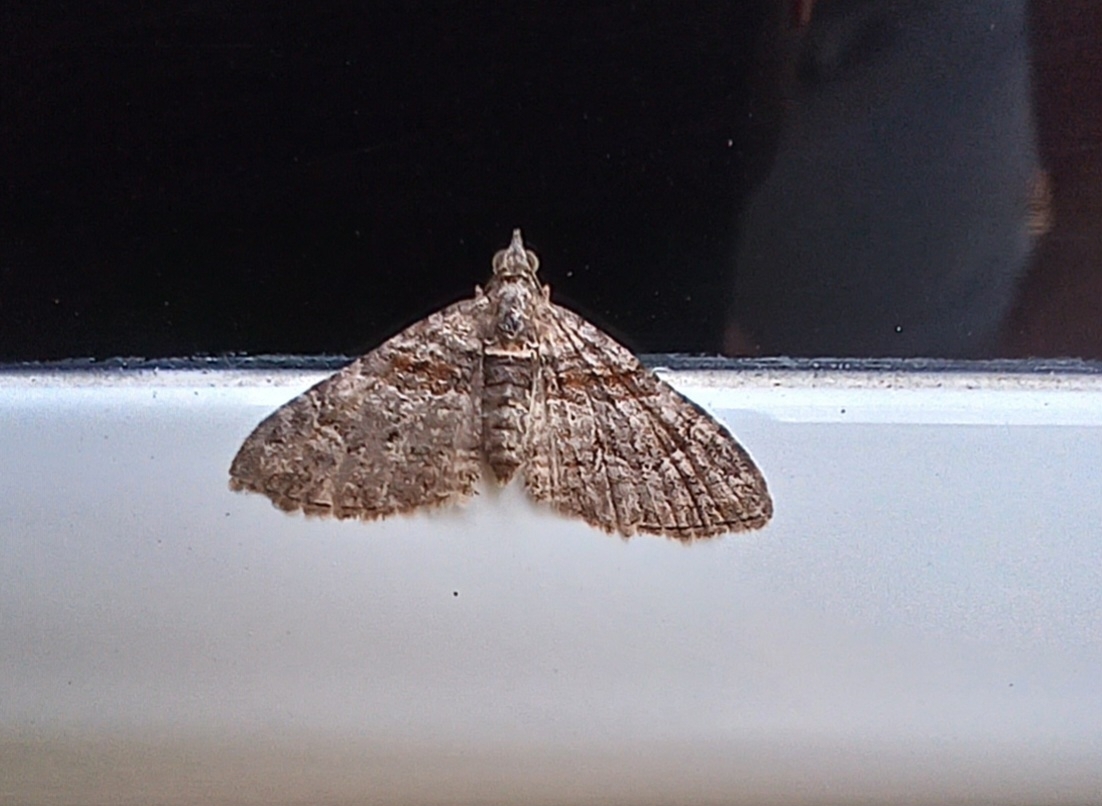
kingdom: Animalia
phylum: Arthropoda
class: Insecta
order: Lepidoptera
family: Geometridae
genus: Phrissogonus
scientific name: Phrissogonus laticostata
